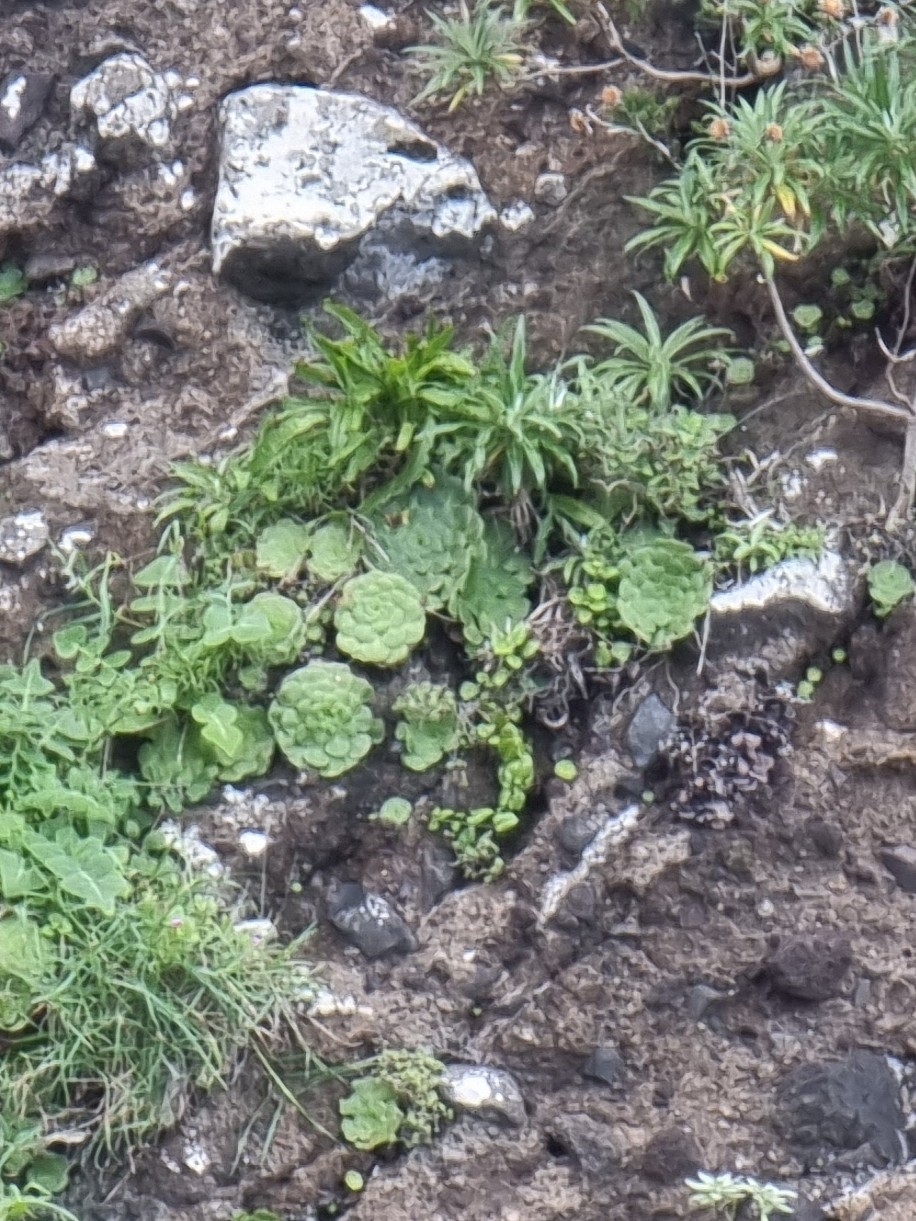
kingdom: Plantae
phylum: Tracheophyta
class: Magnoliopsida
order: Saxifragales
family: Crassulaceae
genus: Aeonium
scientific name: Aeonium glandulosum
